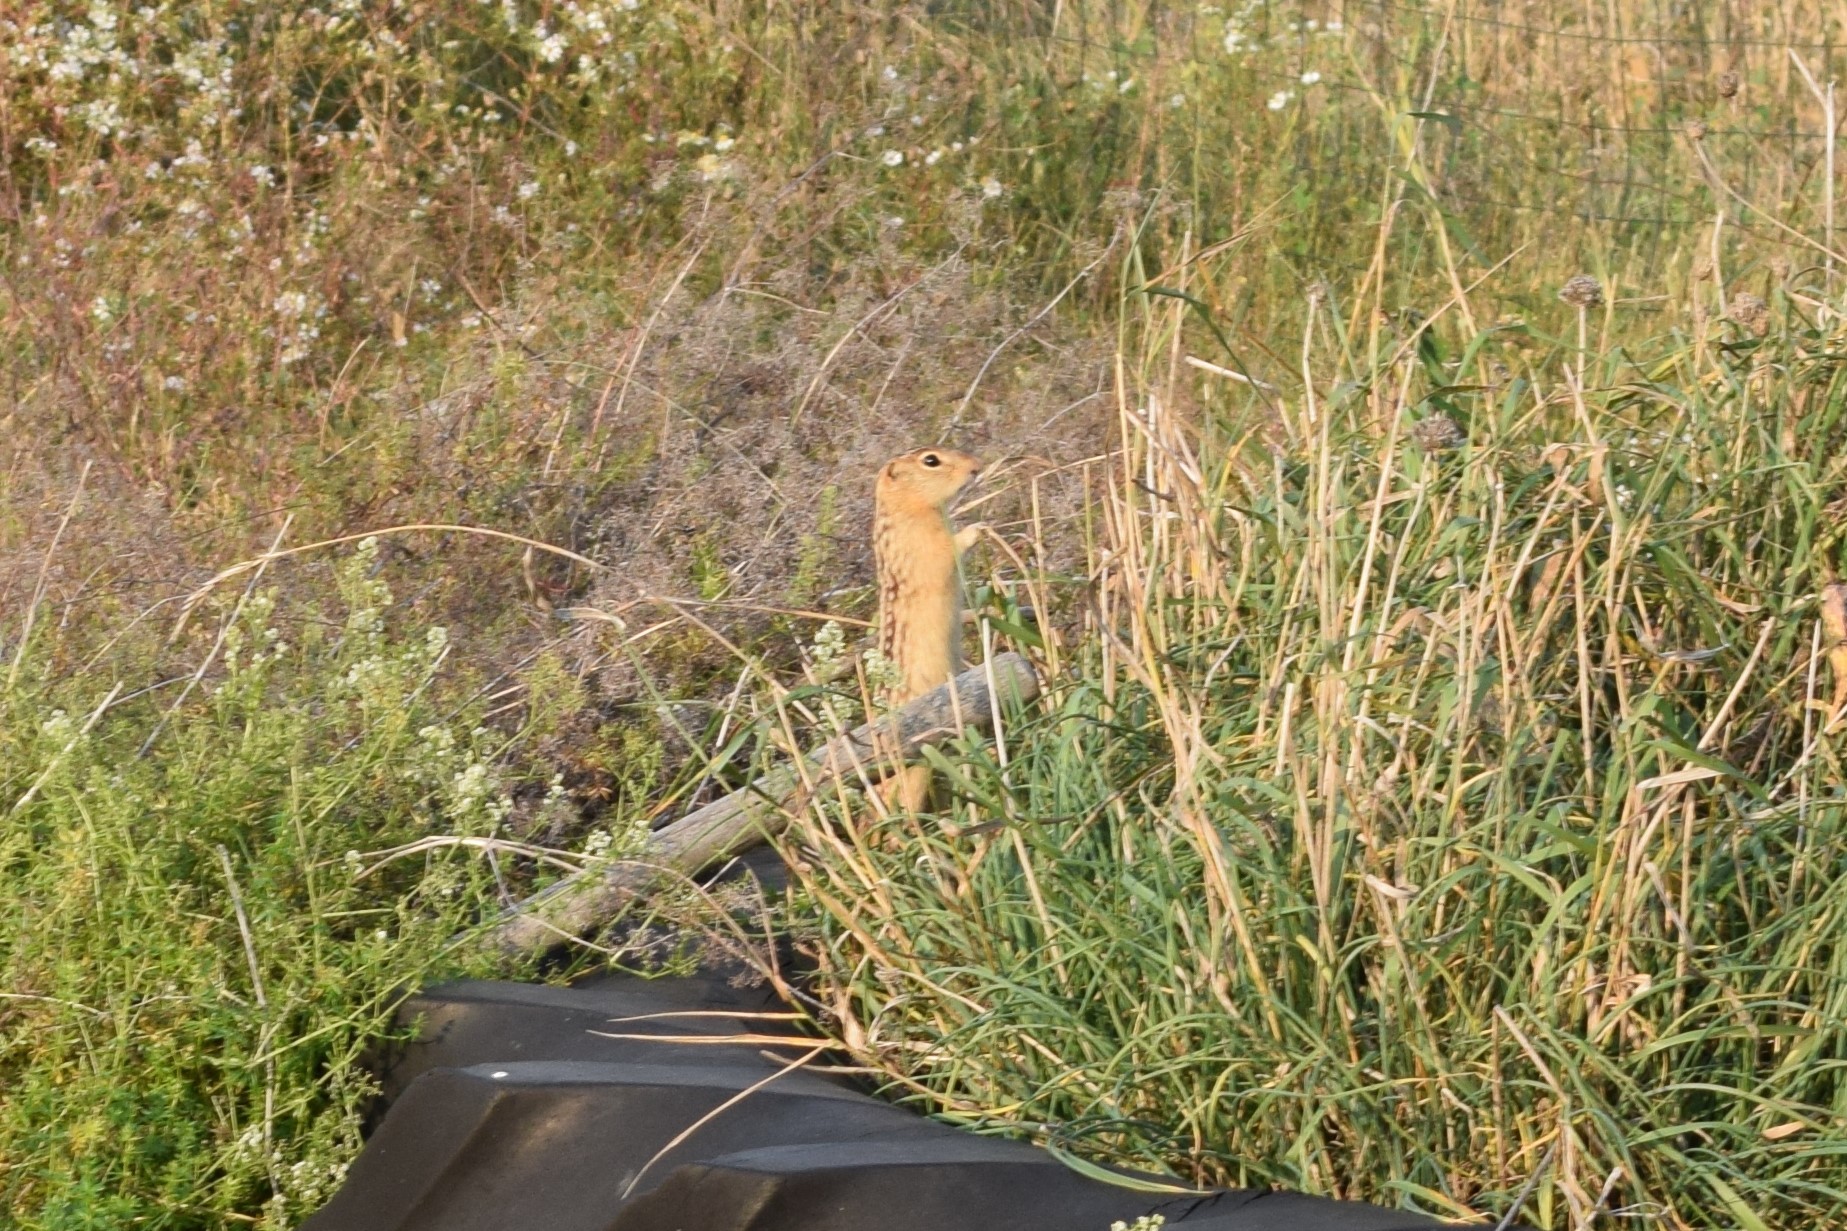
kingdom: Animalia
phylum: Chordata
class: Mammalia
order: Rodentia
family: Sciuridae
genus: Ictidomys
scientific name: Ictidomys tridecemlineatus
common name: Thirteen-lined ground squirrel
